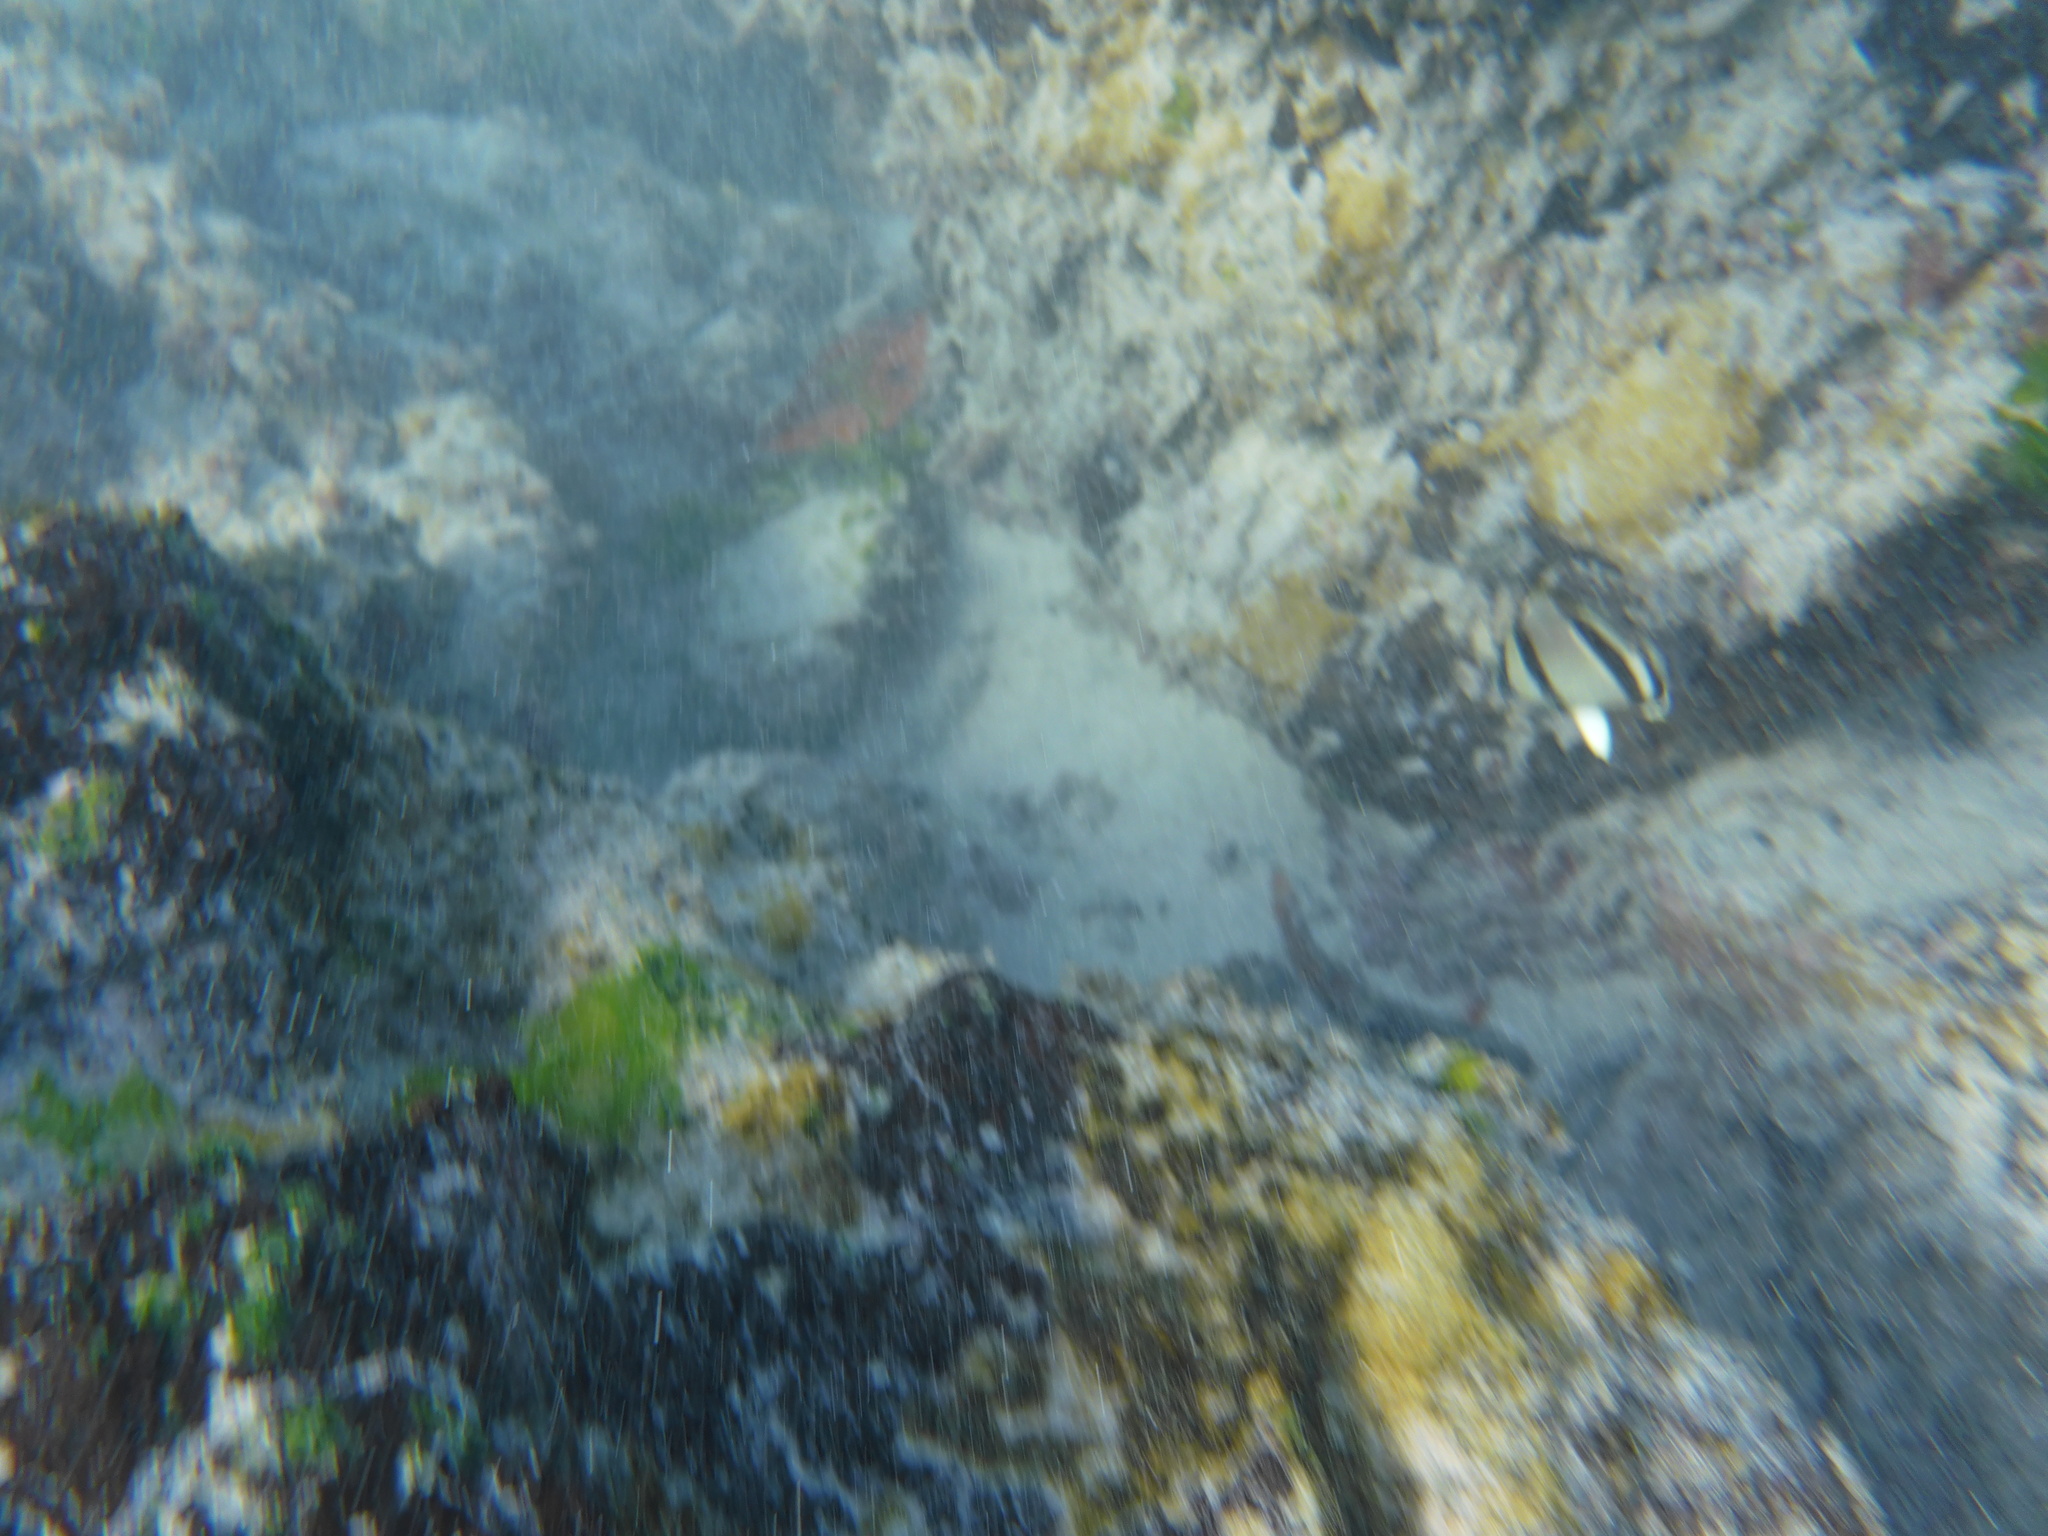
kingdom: Animalia
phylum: Chordata
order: Perciformes
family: Chaetodontidae
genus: Chaetodon
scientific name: Chaetodon humeralis
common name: Threebanded butterflyfish
